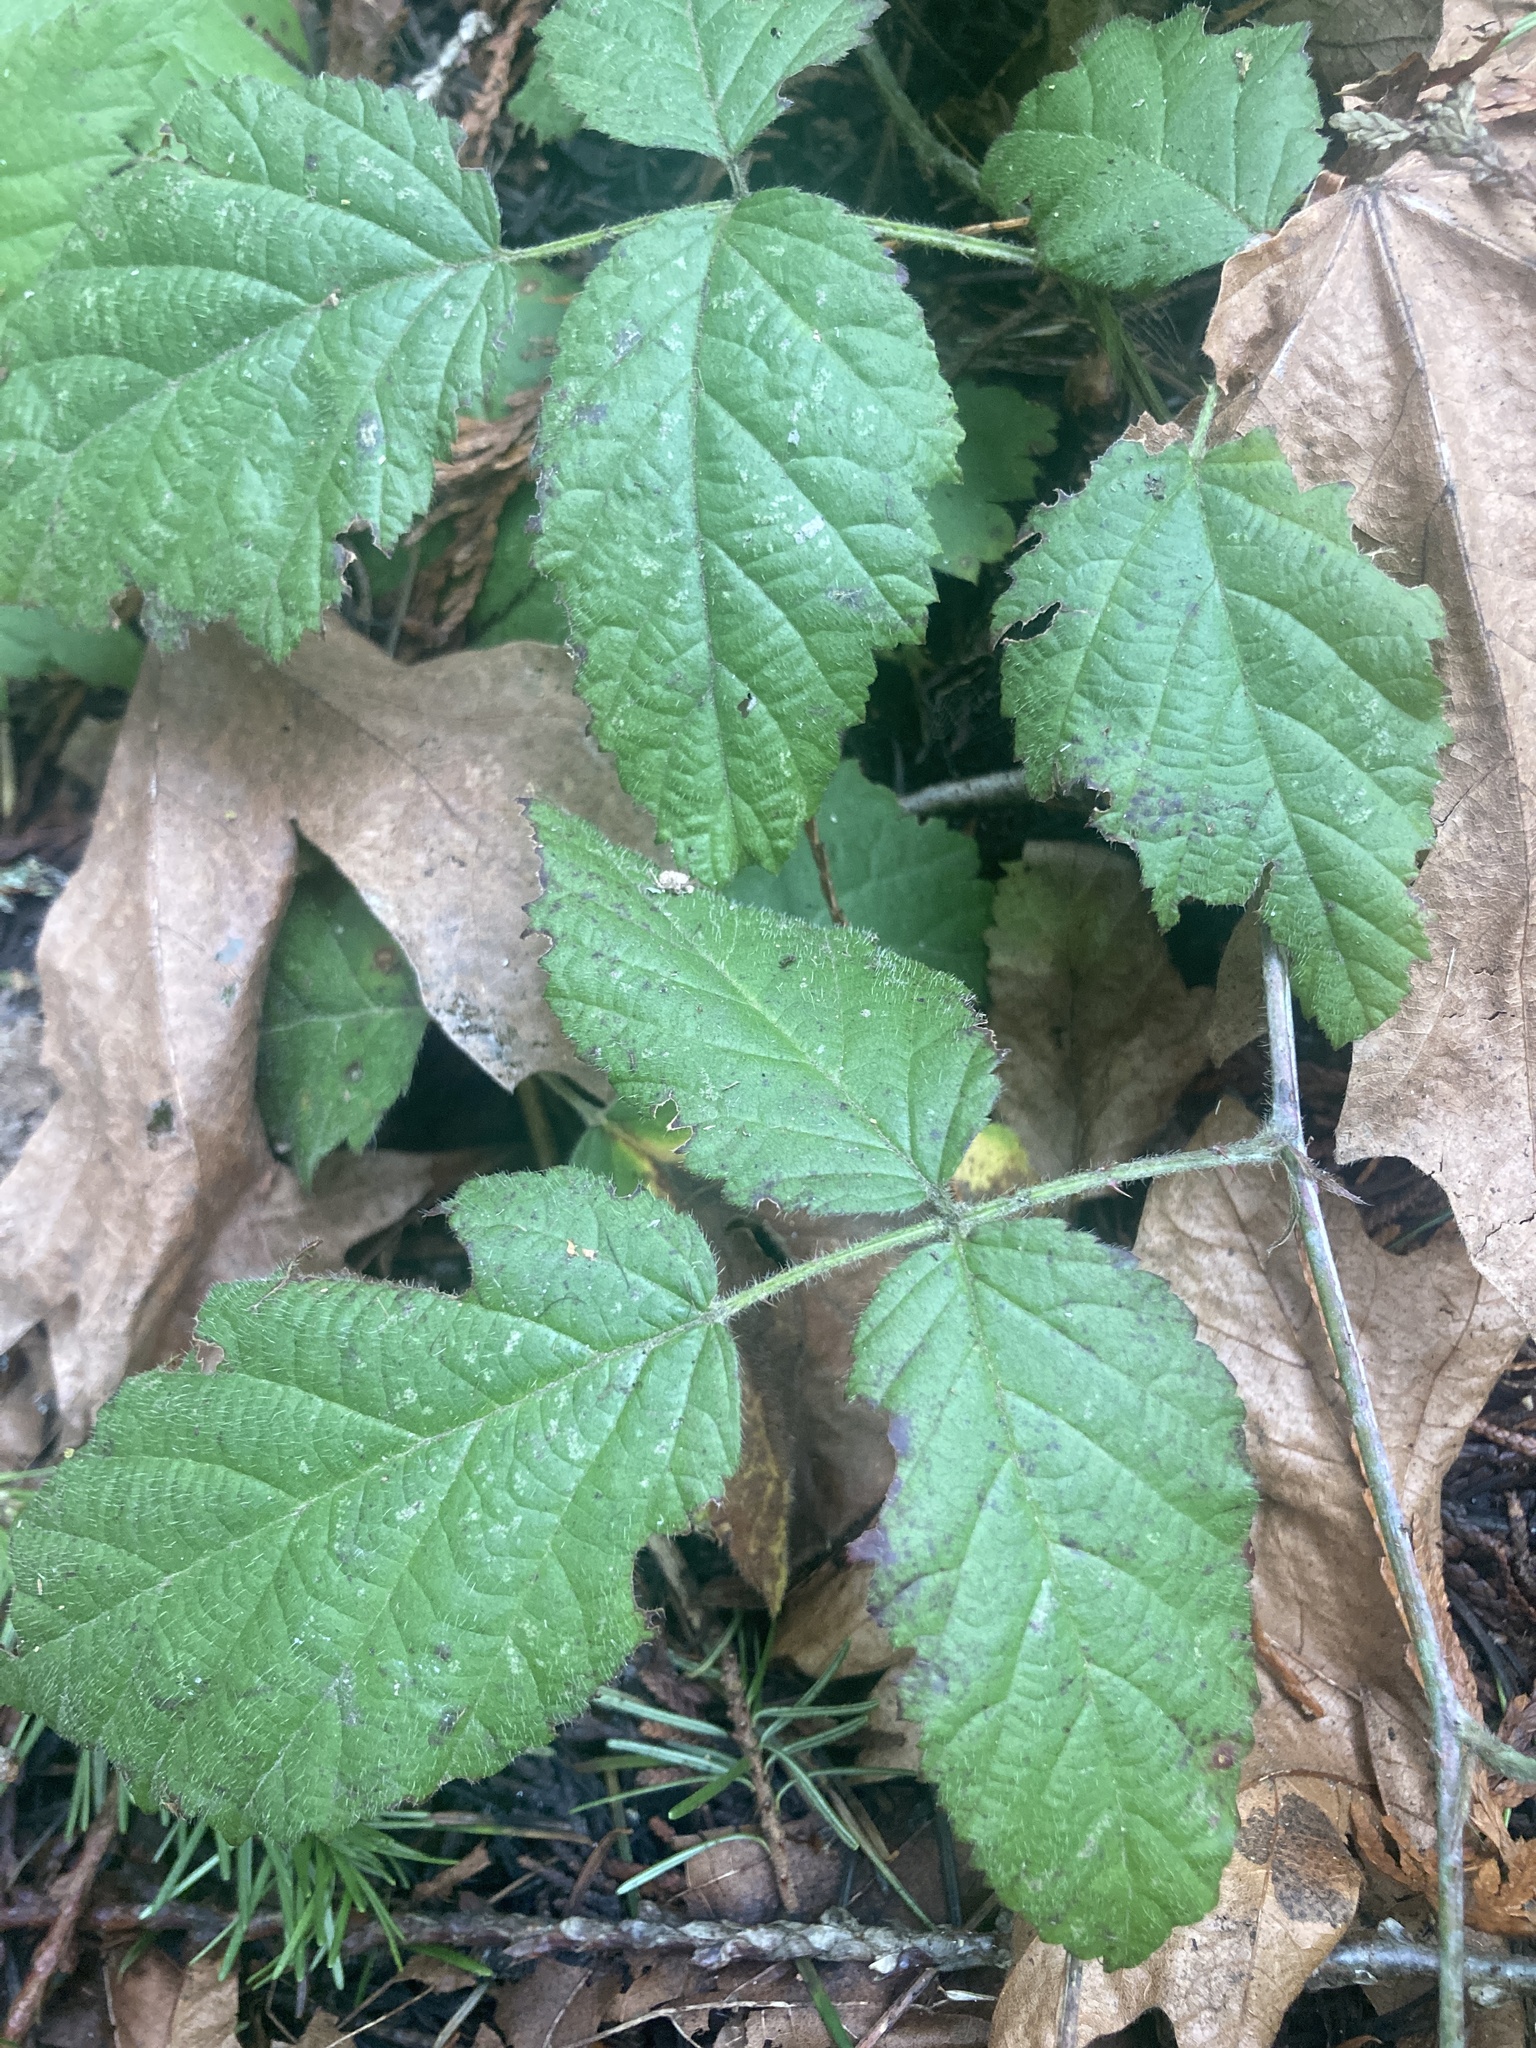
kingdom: Plantae
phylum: Tracheophyta
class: Magnoliopsida
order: Rosales
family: Rosaceae
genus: Rubus
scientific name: Rubus ursinus
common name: Pacific blackberry
